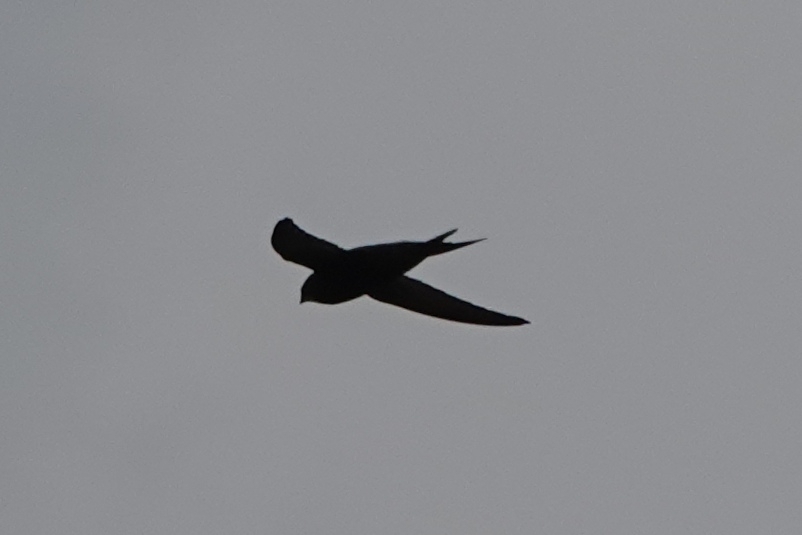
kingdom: Animalia
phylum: Chordata
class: Aves
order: Apodiformes
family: Apodidae
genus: Apus
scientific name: Apus apus
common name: Common swift
